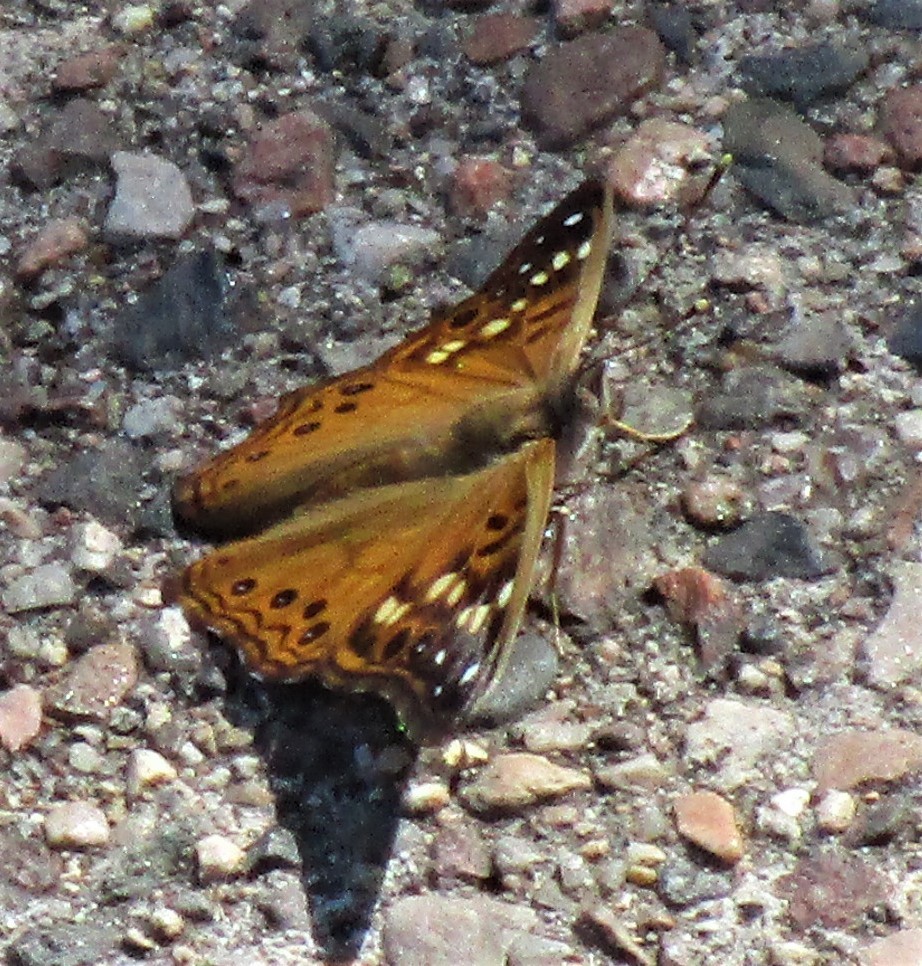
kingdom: Animalia
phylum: Arthropoda
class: Insecta
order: Lepidoptera
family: Nymphalidae
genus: Asterocampa
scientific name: Asterocampa celtis
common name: Hackberry emperor
